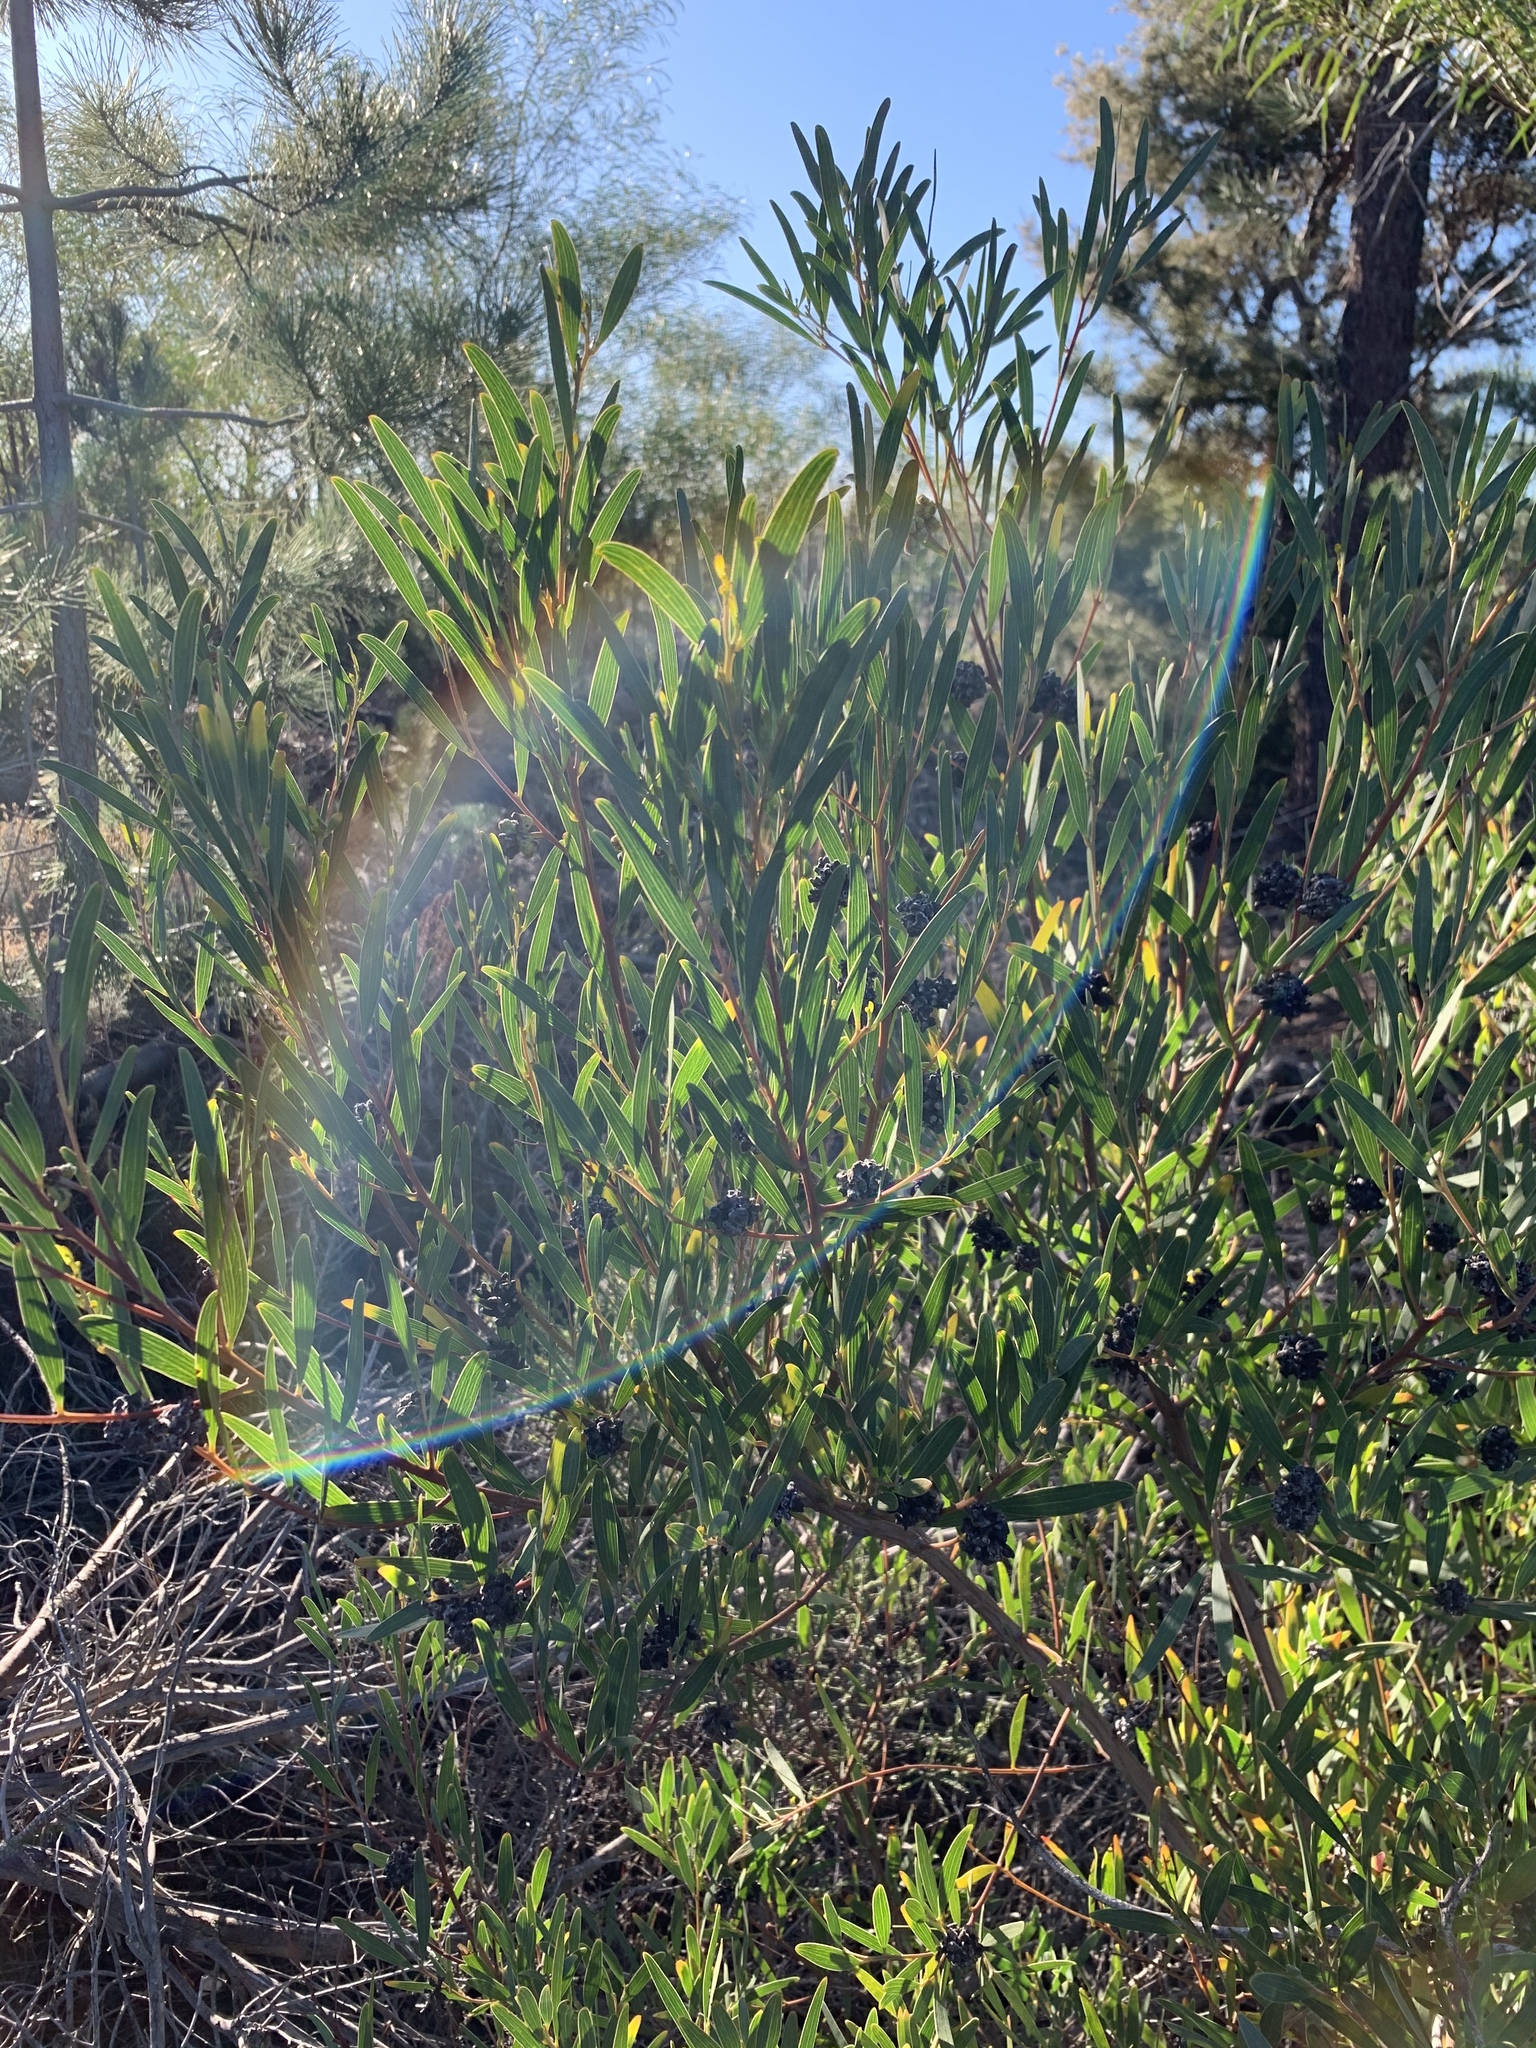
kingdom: Plantae
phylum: Tracheophyta
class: Magnoliopsida
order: Fabales
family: Fabaceae
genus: Acacia
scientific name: Acacia cyclops
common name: Coastal wattle
